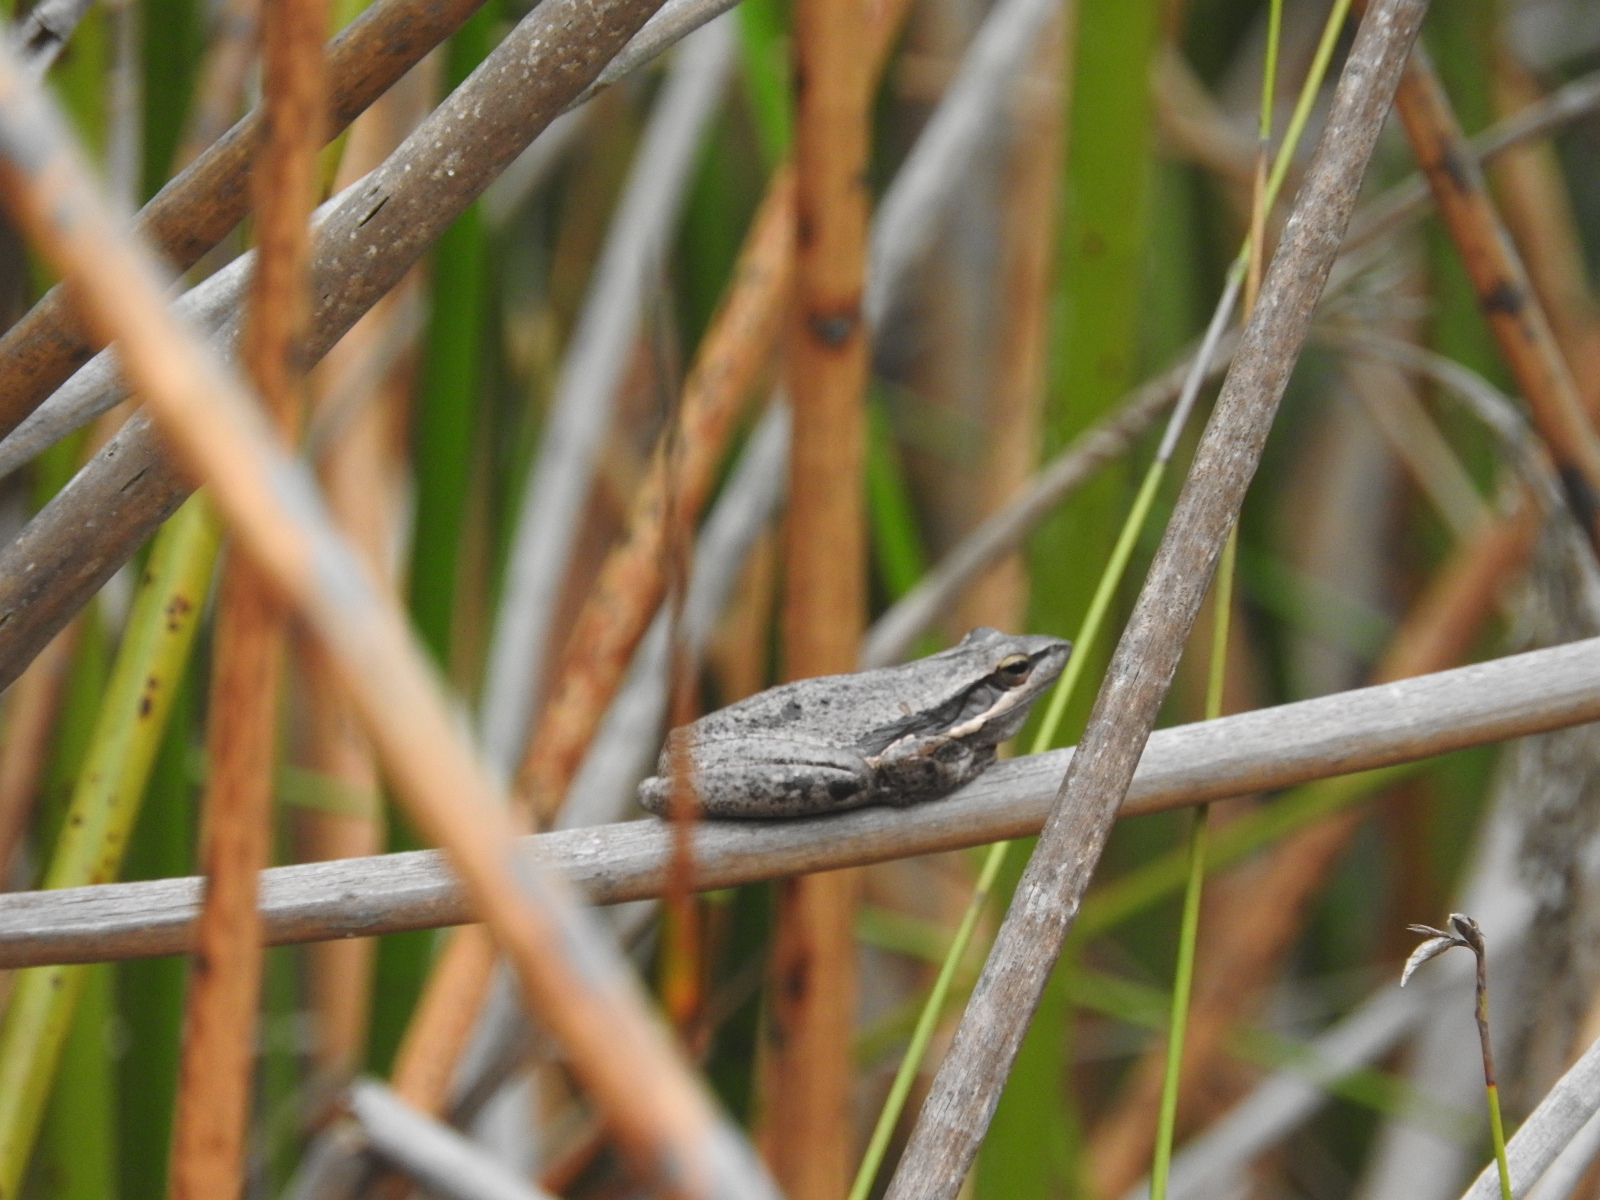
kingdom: Animalia
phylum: Chordata
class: Amphibia
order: Anura
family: Pelodryadidae
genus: Litoria
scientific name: Litoria adelaidensis
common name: Slender tree frog
